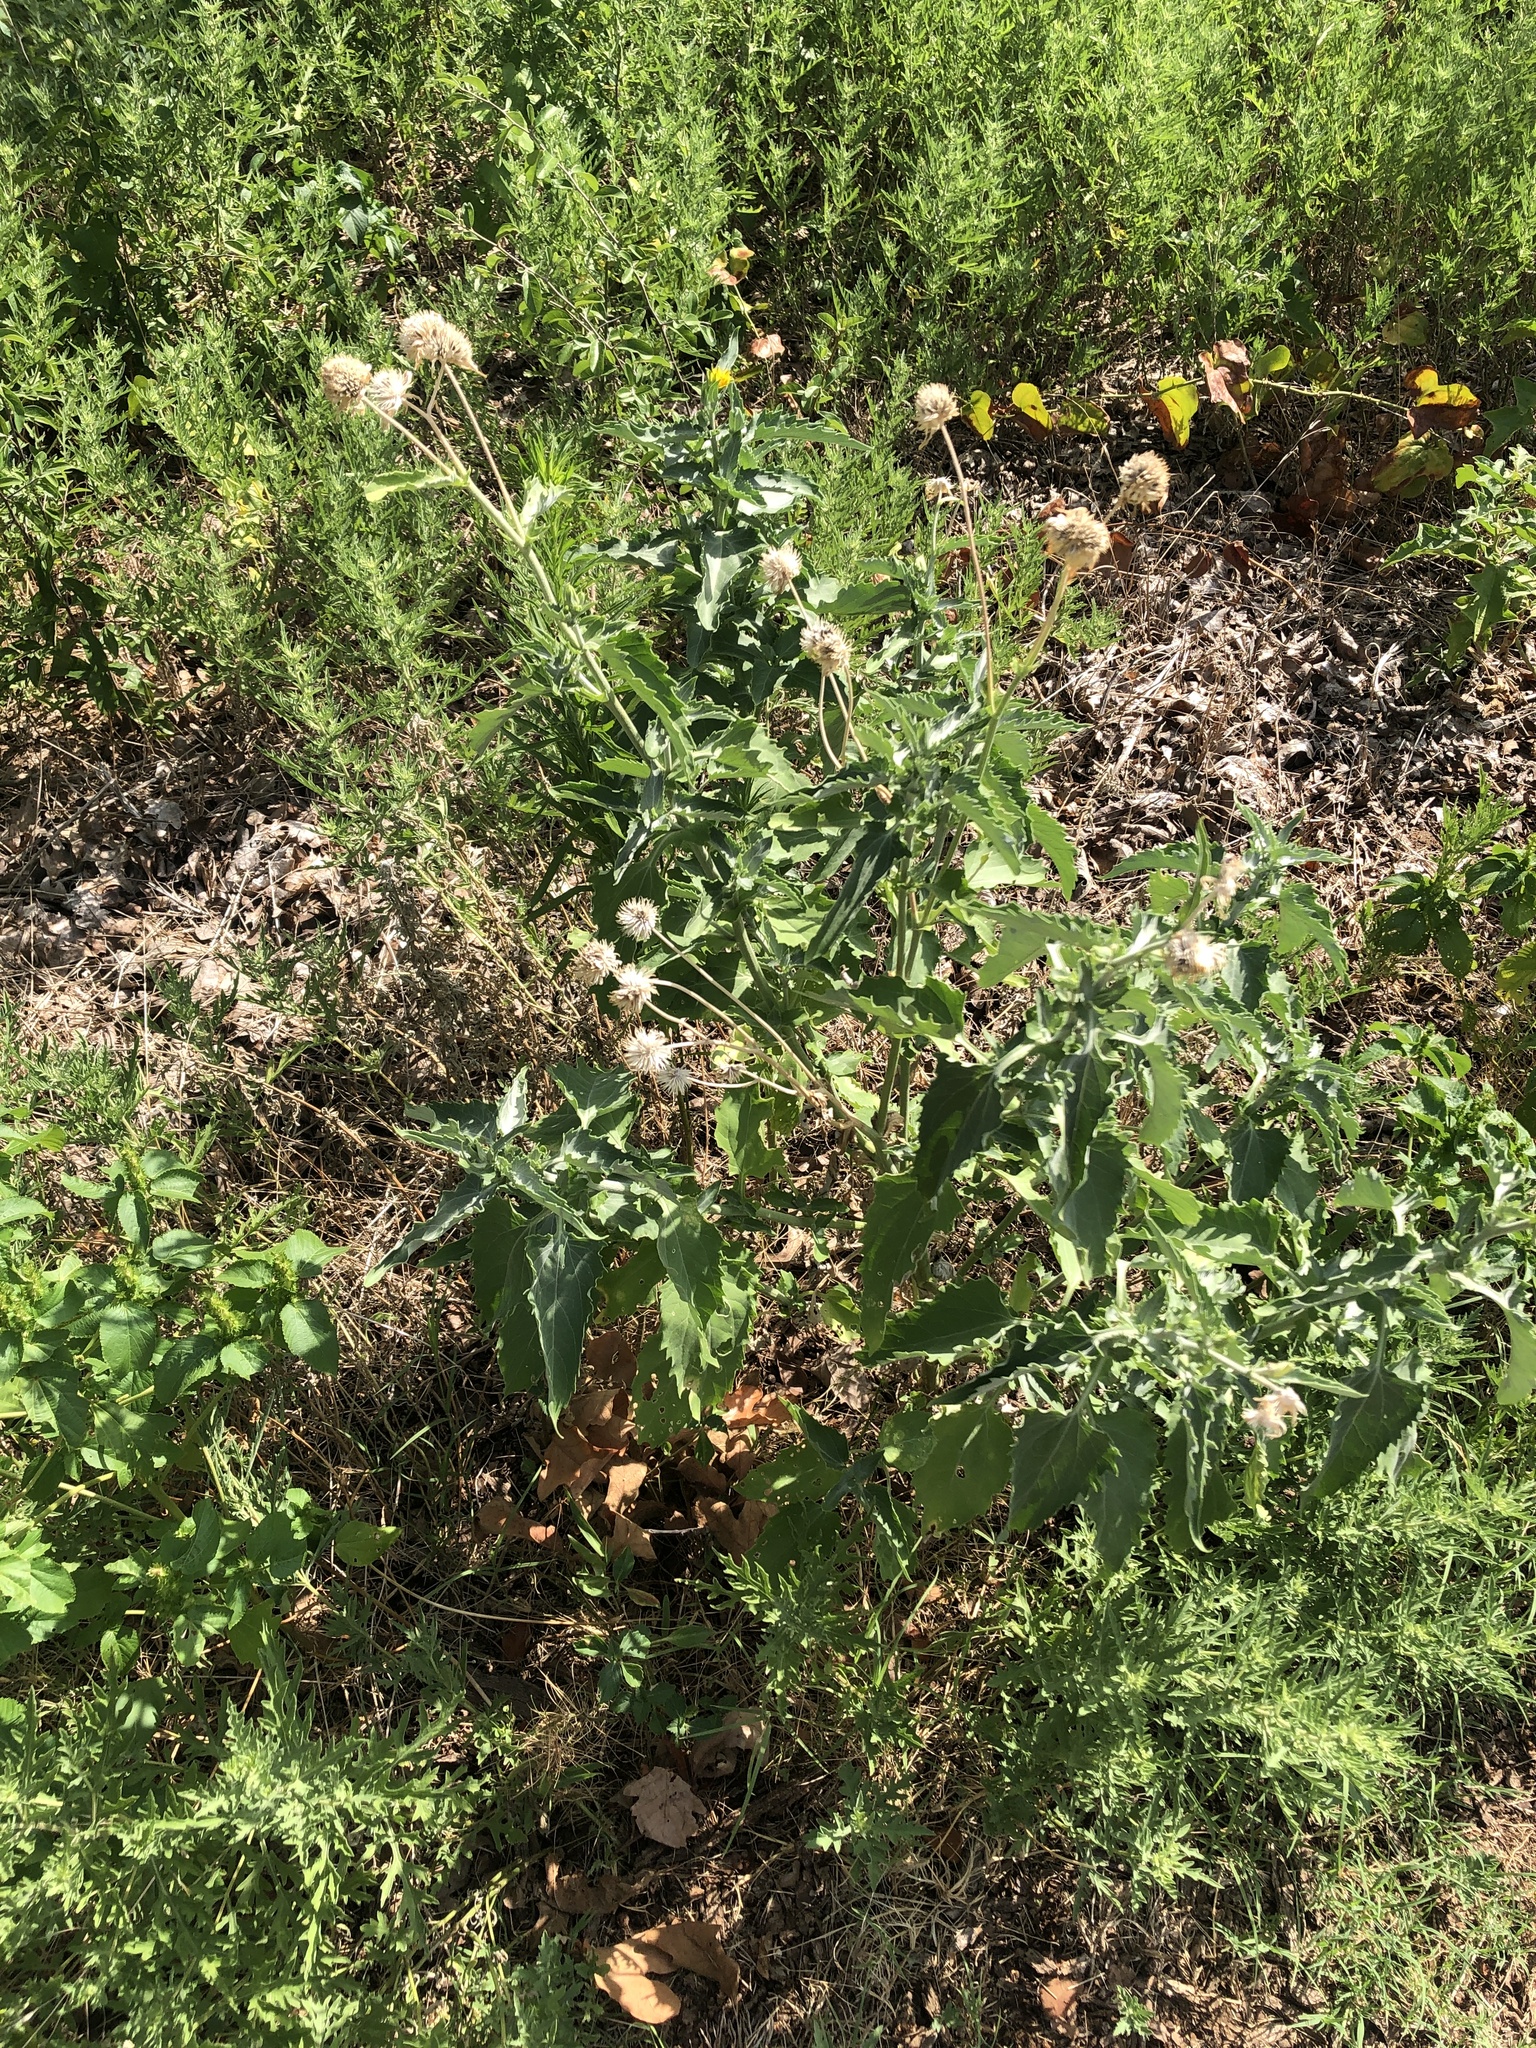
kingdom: Plantae
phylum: Tracheophyta
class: Magnoliopsida
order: Asterales
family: Asteraceae
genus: Verbesina
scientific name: Verbesina encelioides
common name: Golden crownbeard
